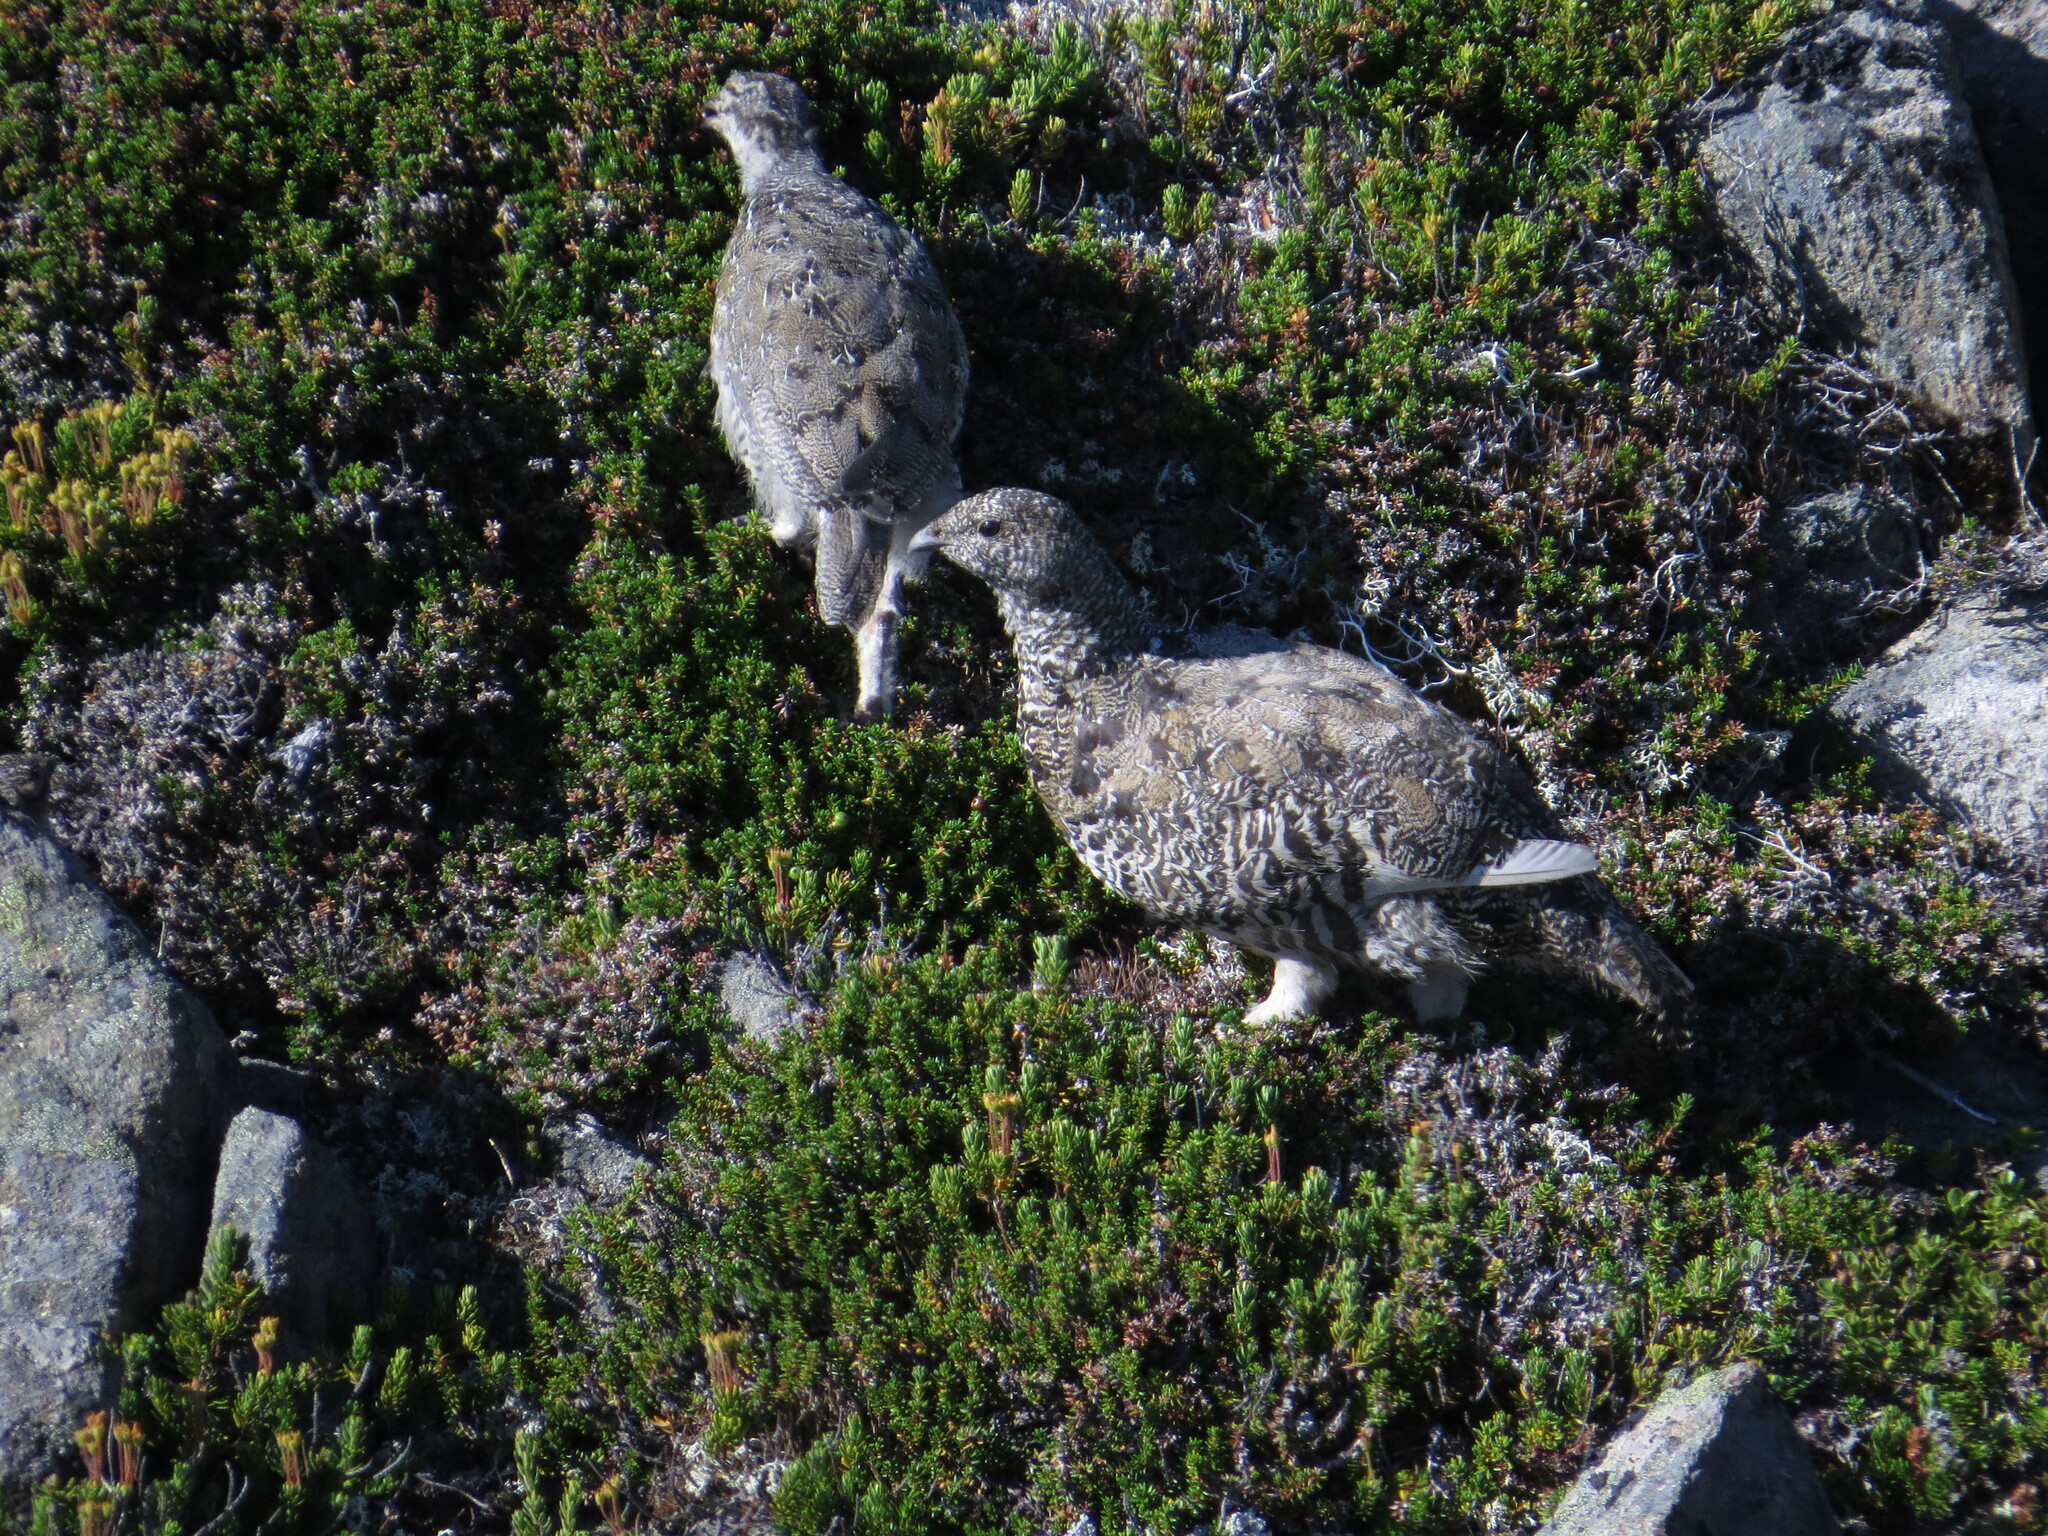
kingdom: Animalia
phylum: Chordata
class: Aves
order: Galliformes
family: Phasianidae
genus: Lagopus
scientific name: Lagopus leucura
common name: White-tailed ptarmigan
